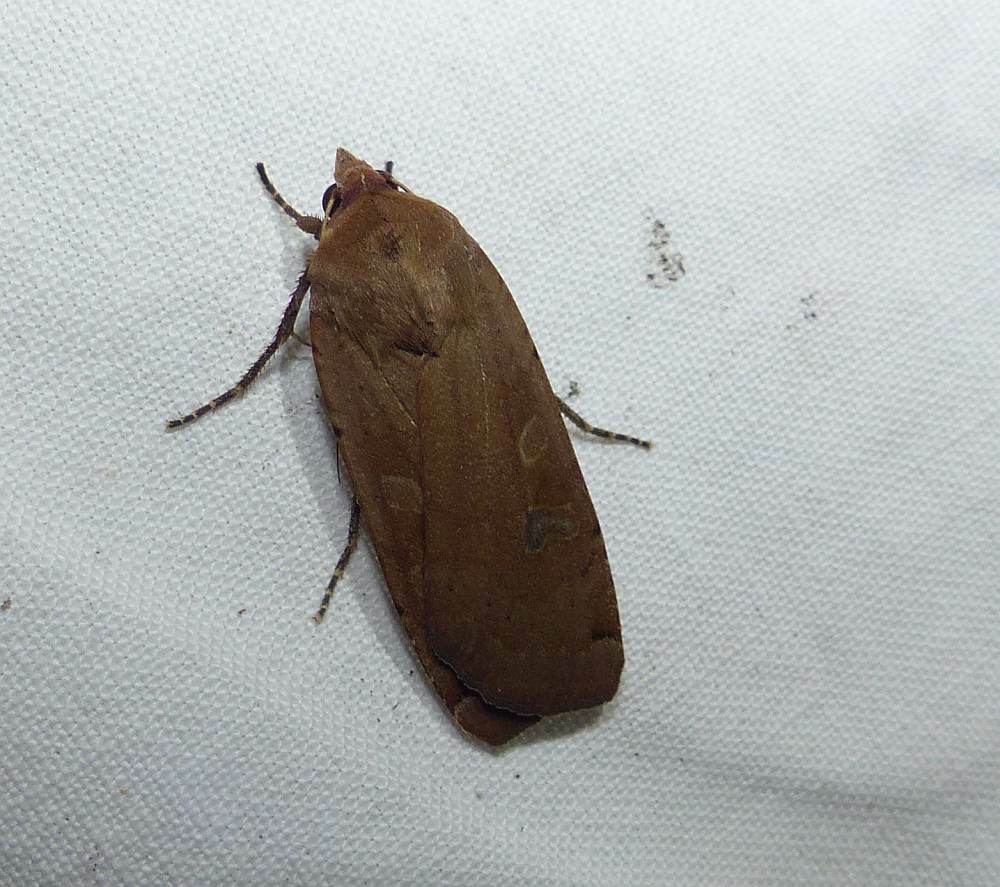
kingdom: Animalia
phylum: Arthropoda
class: Insecta
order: Lepidoptera
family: Noctuidae
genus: Noctua
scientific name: Noctua pronuba
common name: Large yellow underwing
